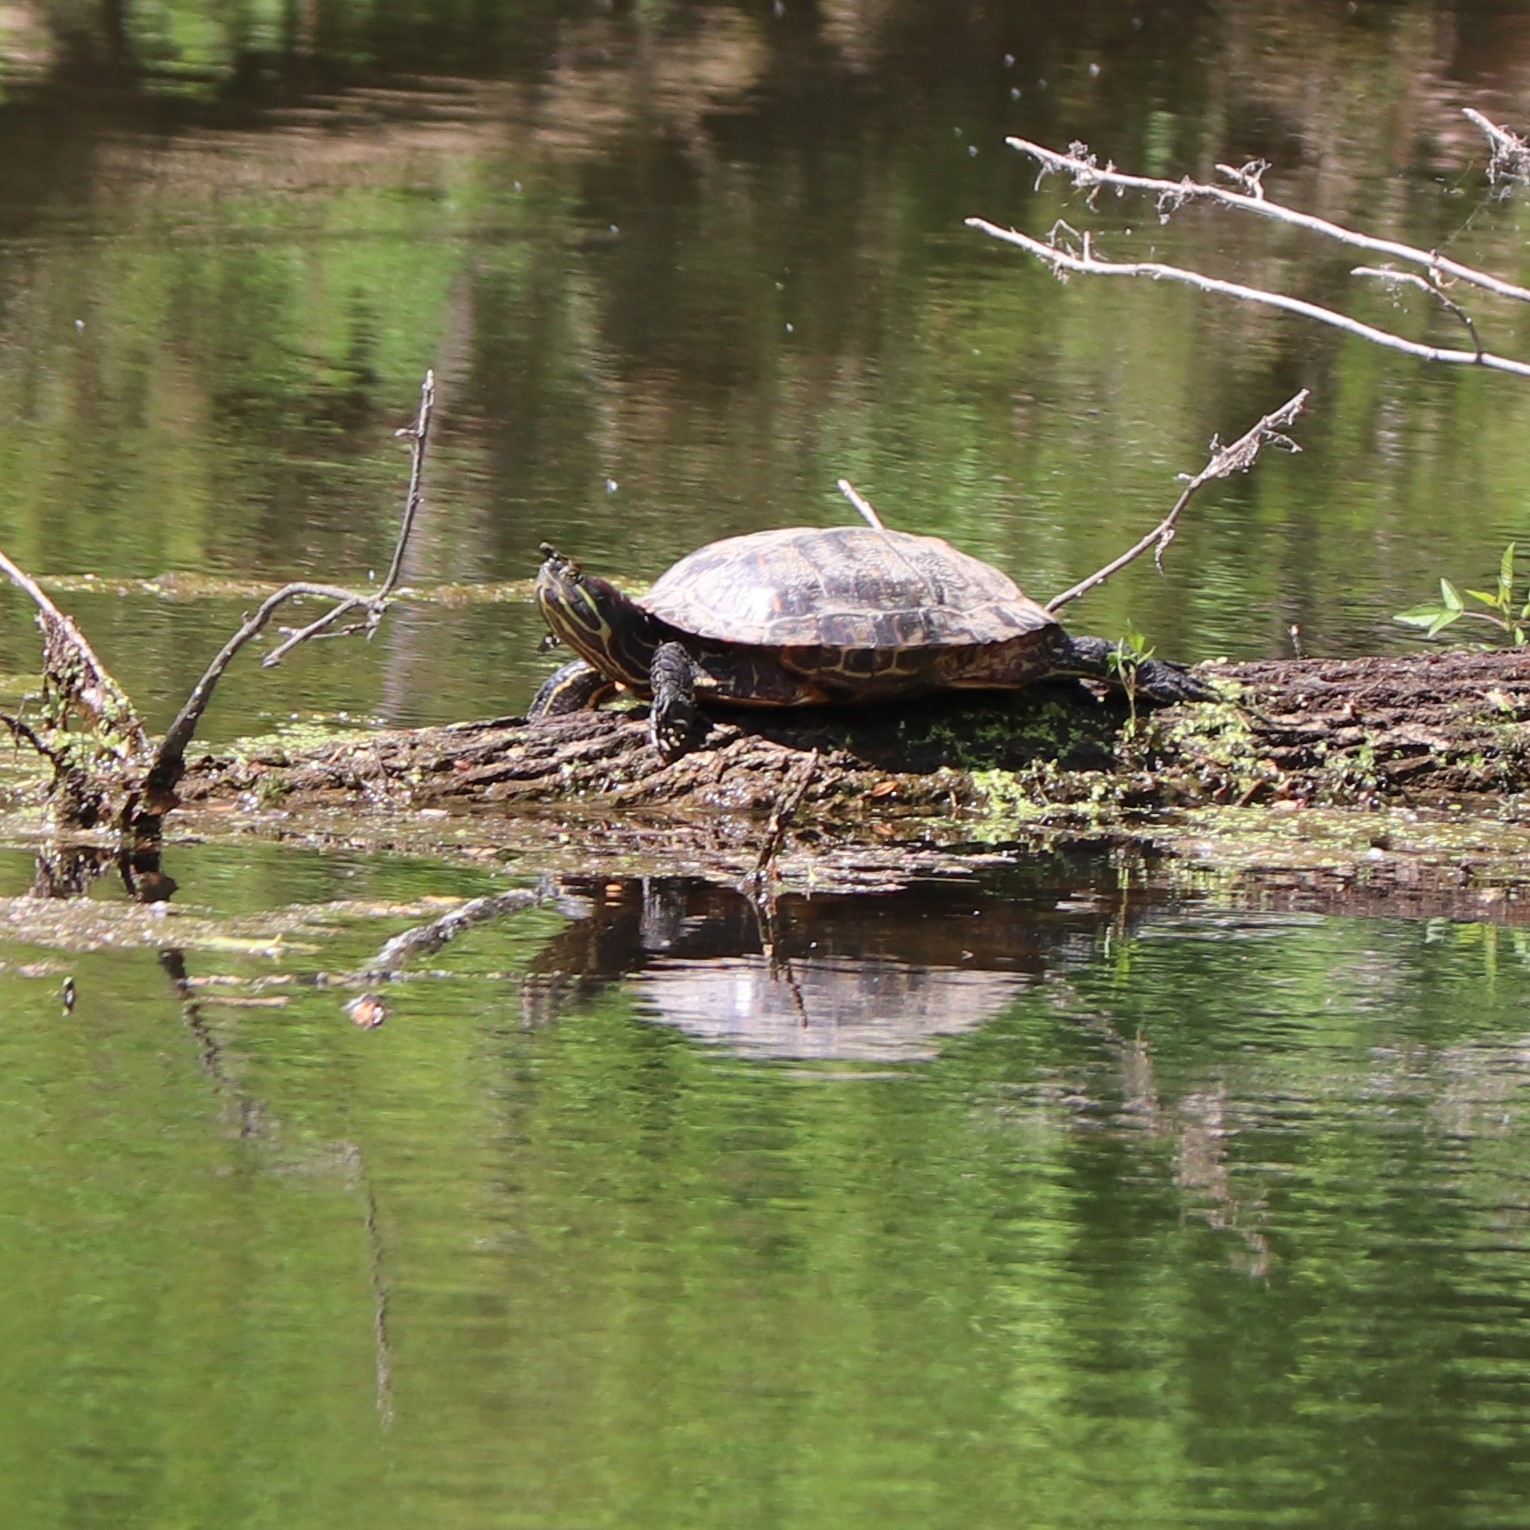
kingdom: Animalia
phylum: Chordata
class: Testudines
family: Emydidae
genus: Trachemys
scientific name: Trachemys scripta
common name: Slider
